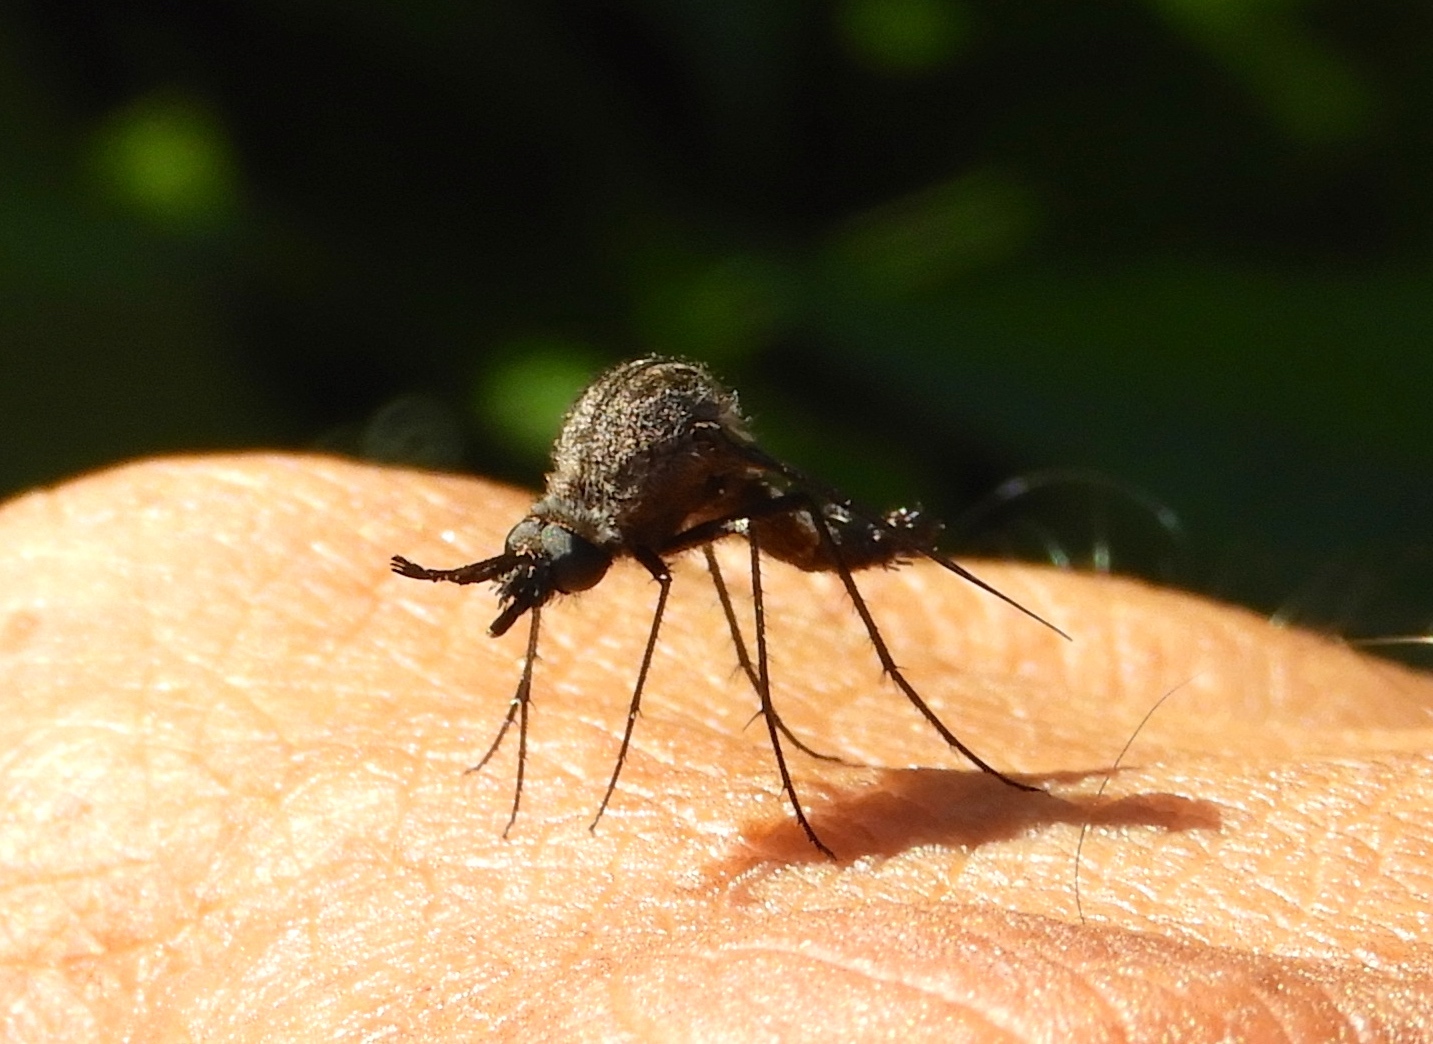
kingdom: Animalia
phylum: Arthropoda
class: Insecta
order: Diptera
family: Bombyliidae
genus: Lepidophora
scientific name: Lepidophora vetusta
